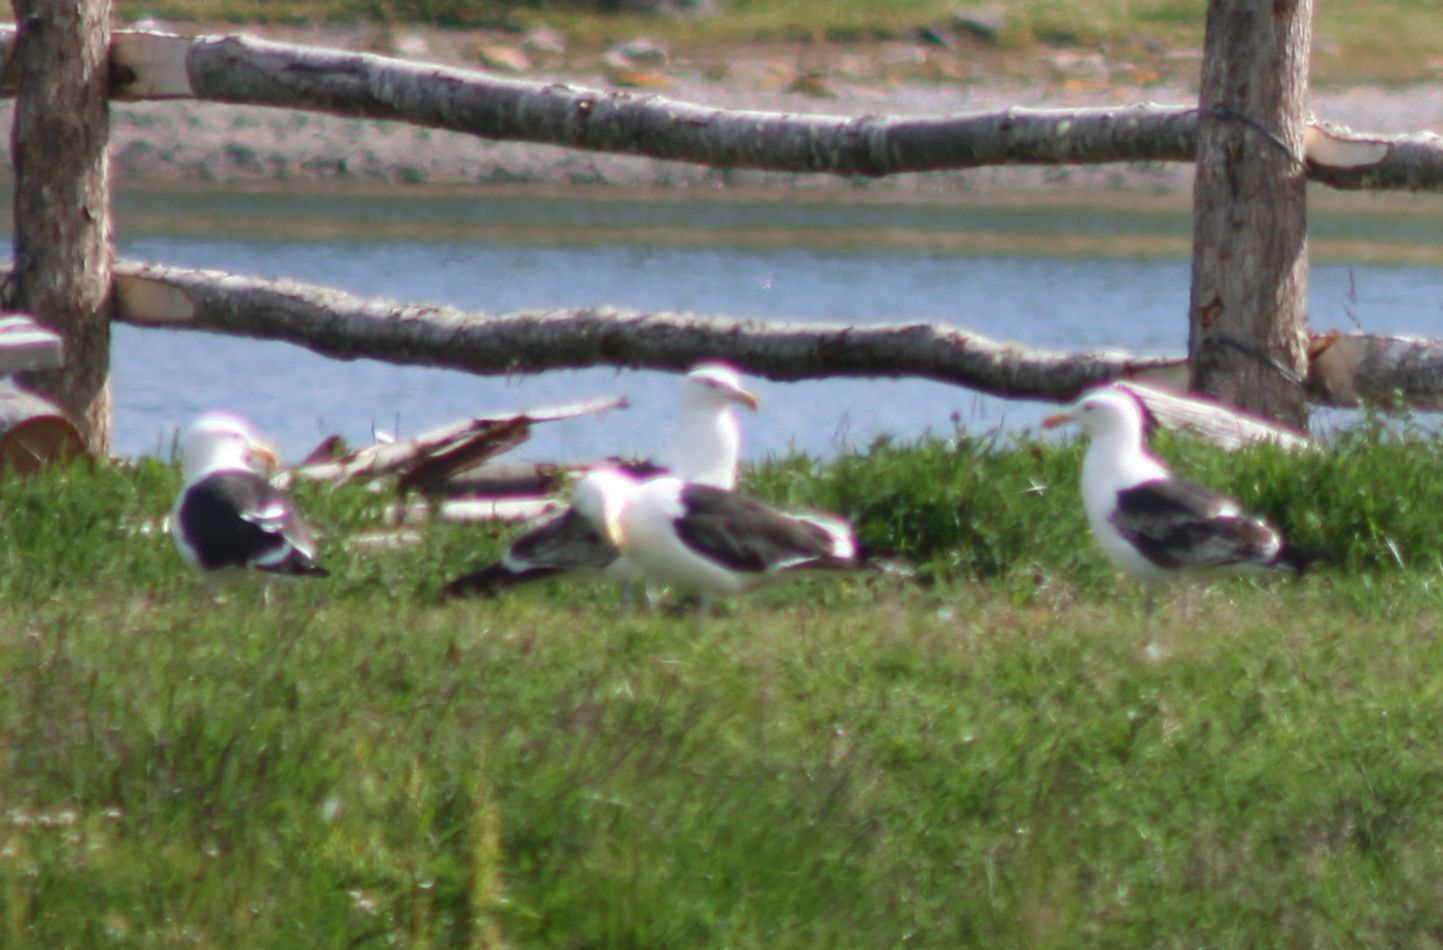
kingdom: Animalia
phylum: Chordata
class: Aves
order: Charadriiformes
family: Laridae
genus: Larus
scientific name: Larus dominicanus
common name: Kelp gull
